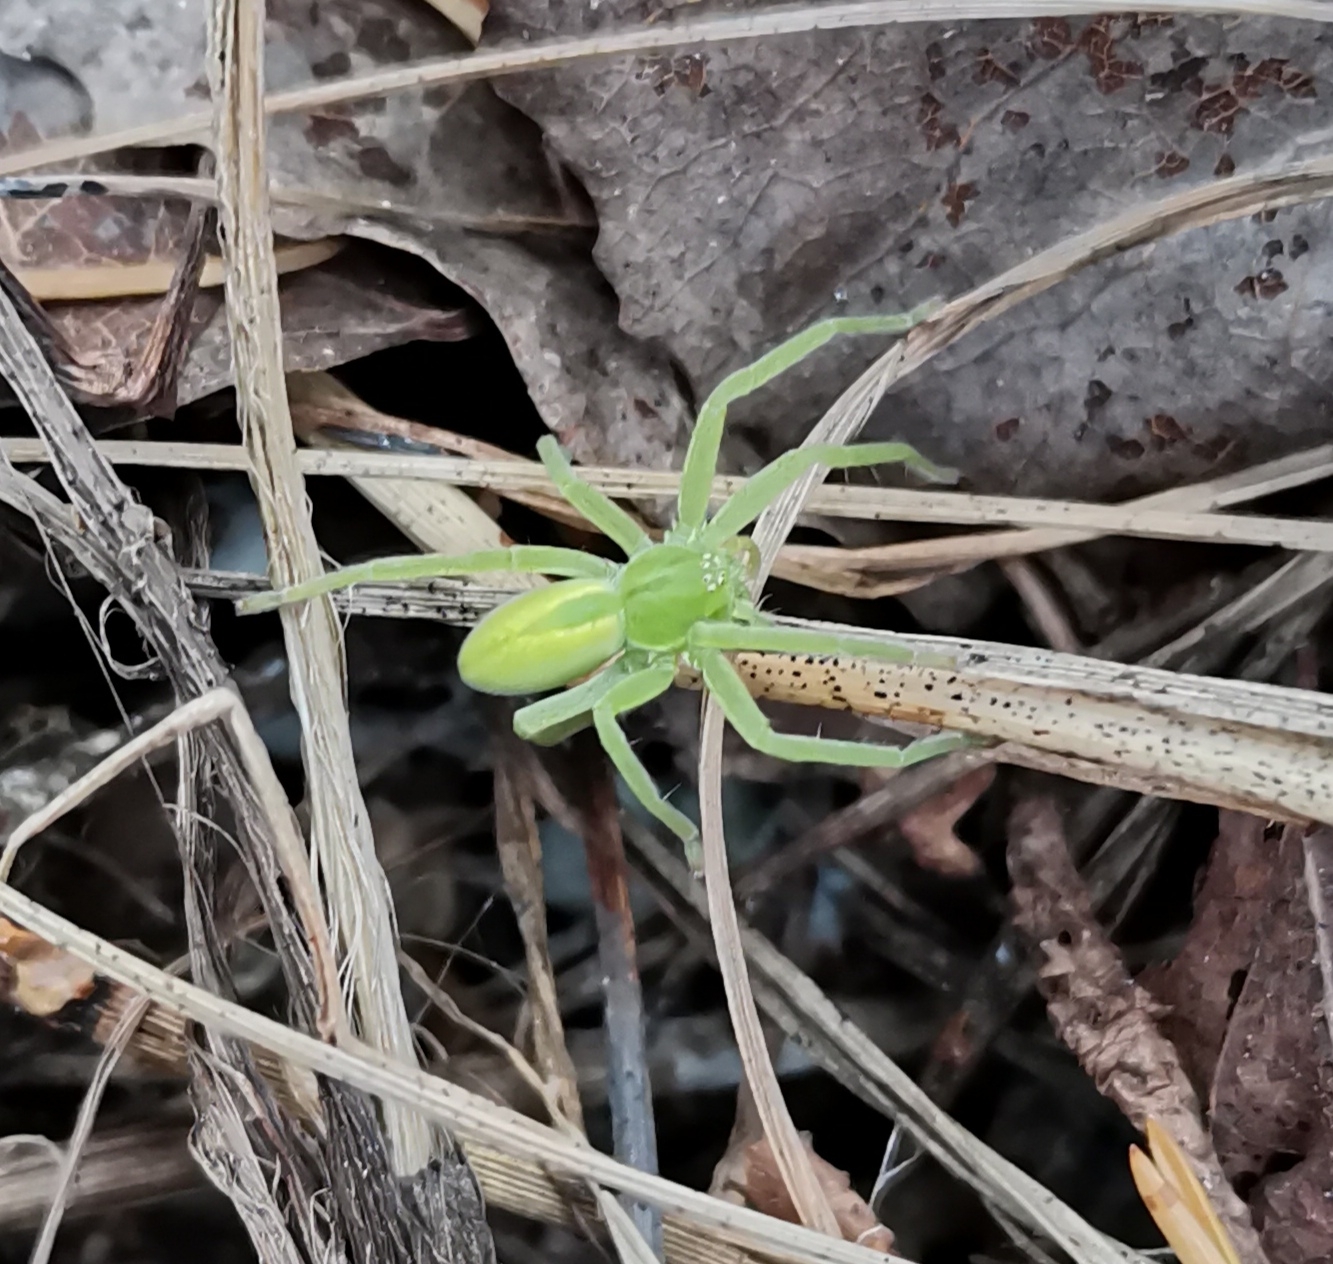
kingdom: Animalia
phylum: Arthropoda
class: Arachnida
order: Araneae
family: Sparassidae
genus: Micrommata
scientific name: Micrommata virescens
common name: Green spider
